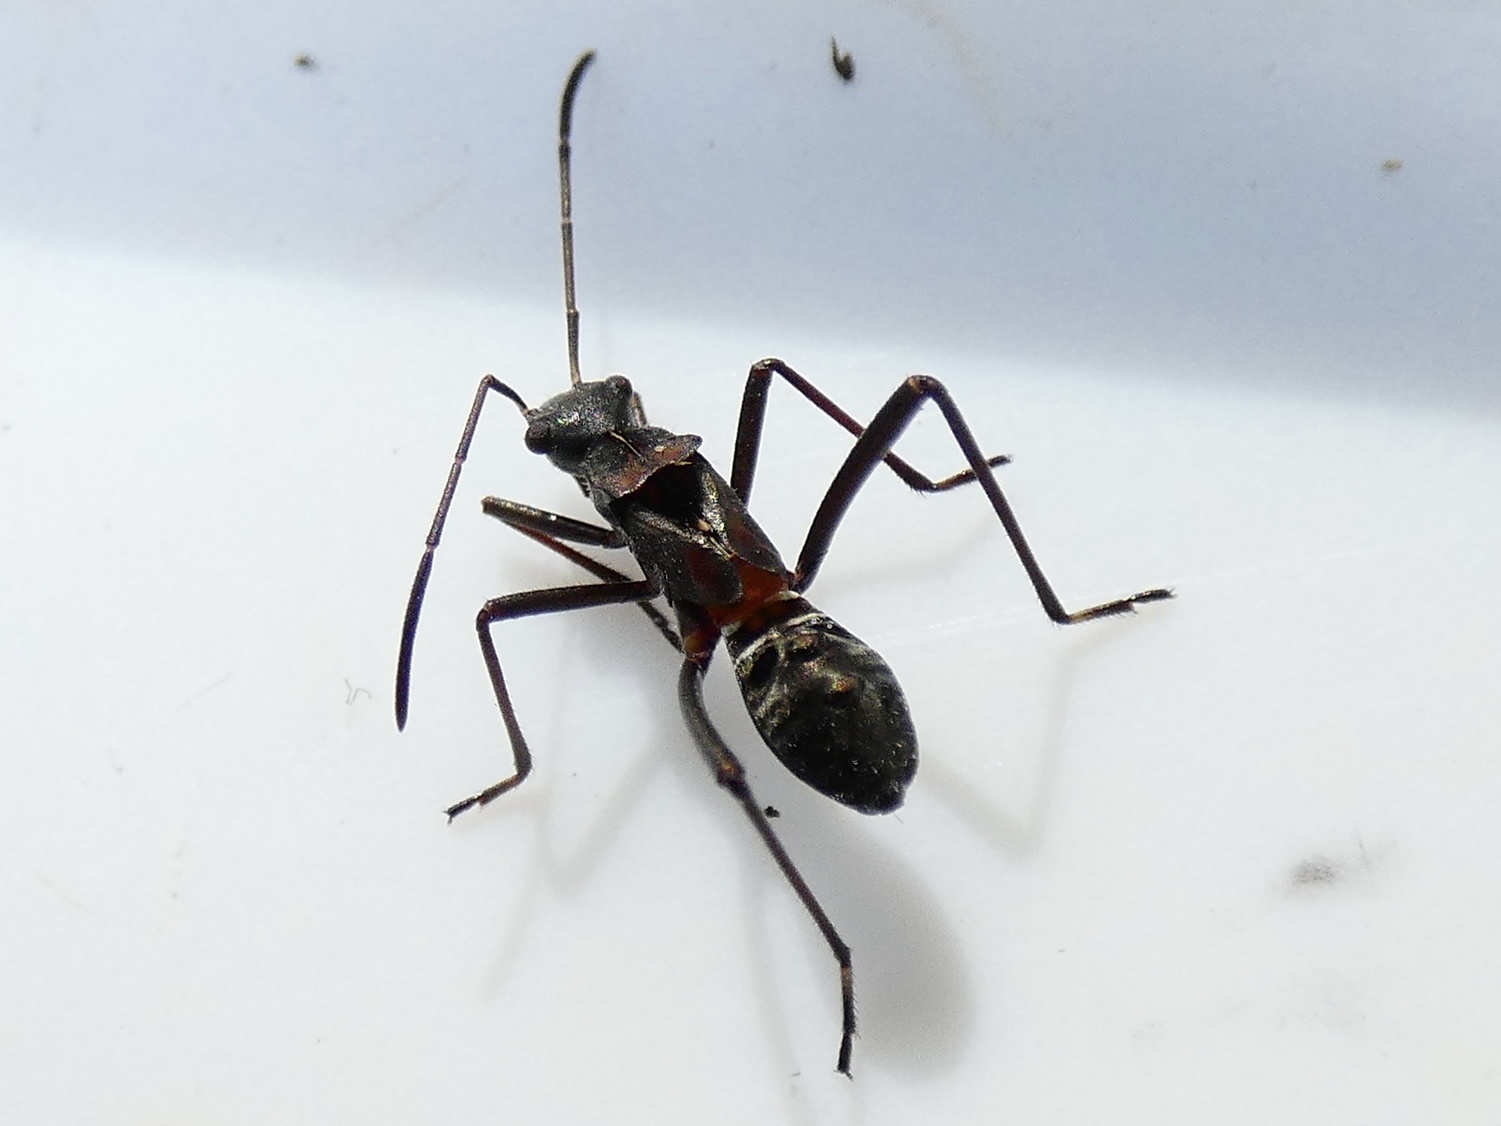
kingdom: Animalia
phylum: Arthropoda
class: Insecta
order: Hemiptera
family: Alydidae
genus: Alydus
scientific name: Alydus calcaratus
